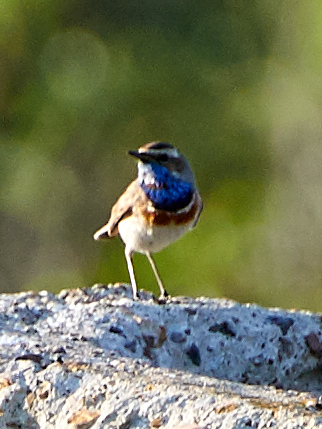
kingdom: Animalia
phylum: Chordata
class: Aves
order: Passeriformes
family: Muscicapidae
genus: Luscinia
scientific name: Luscinia svecica
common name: Bluethroat
